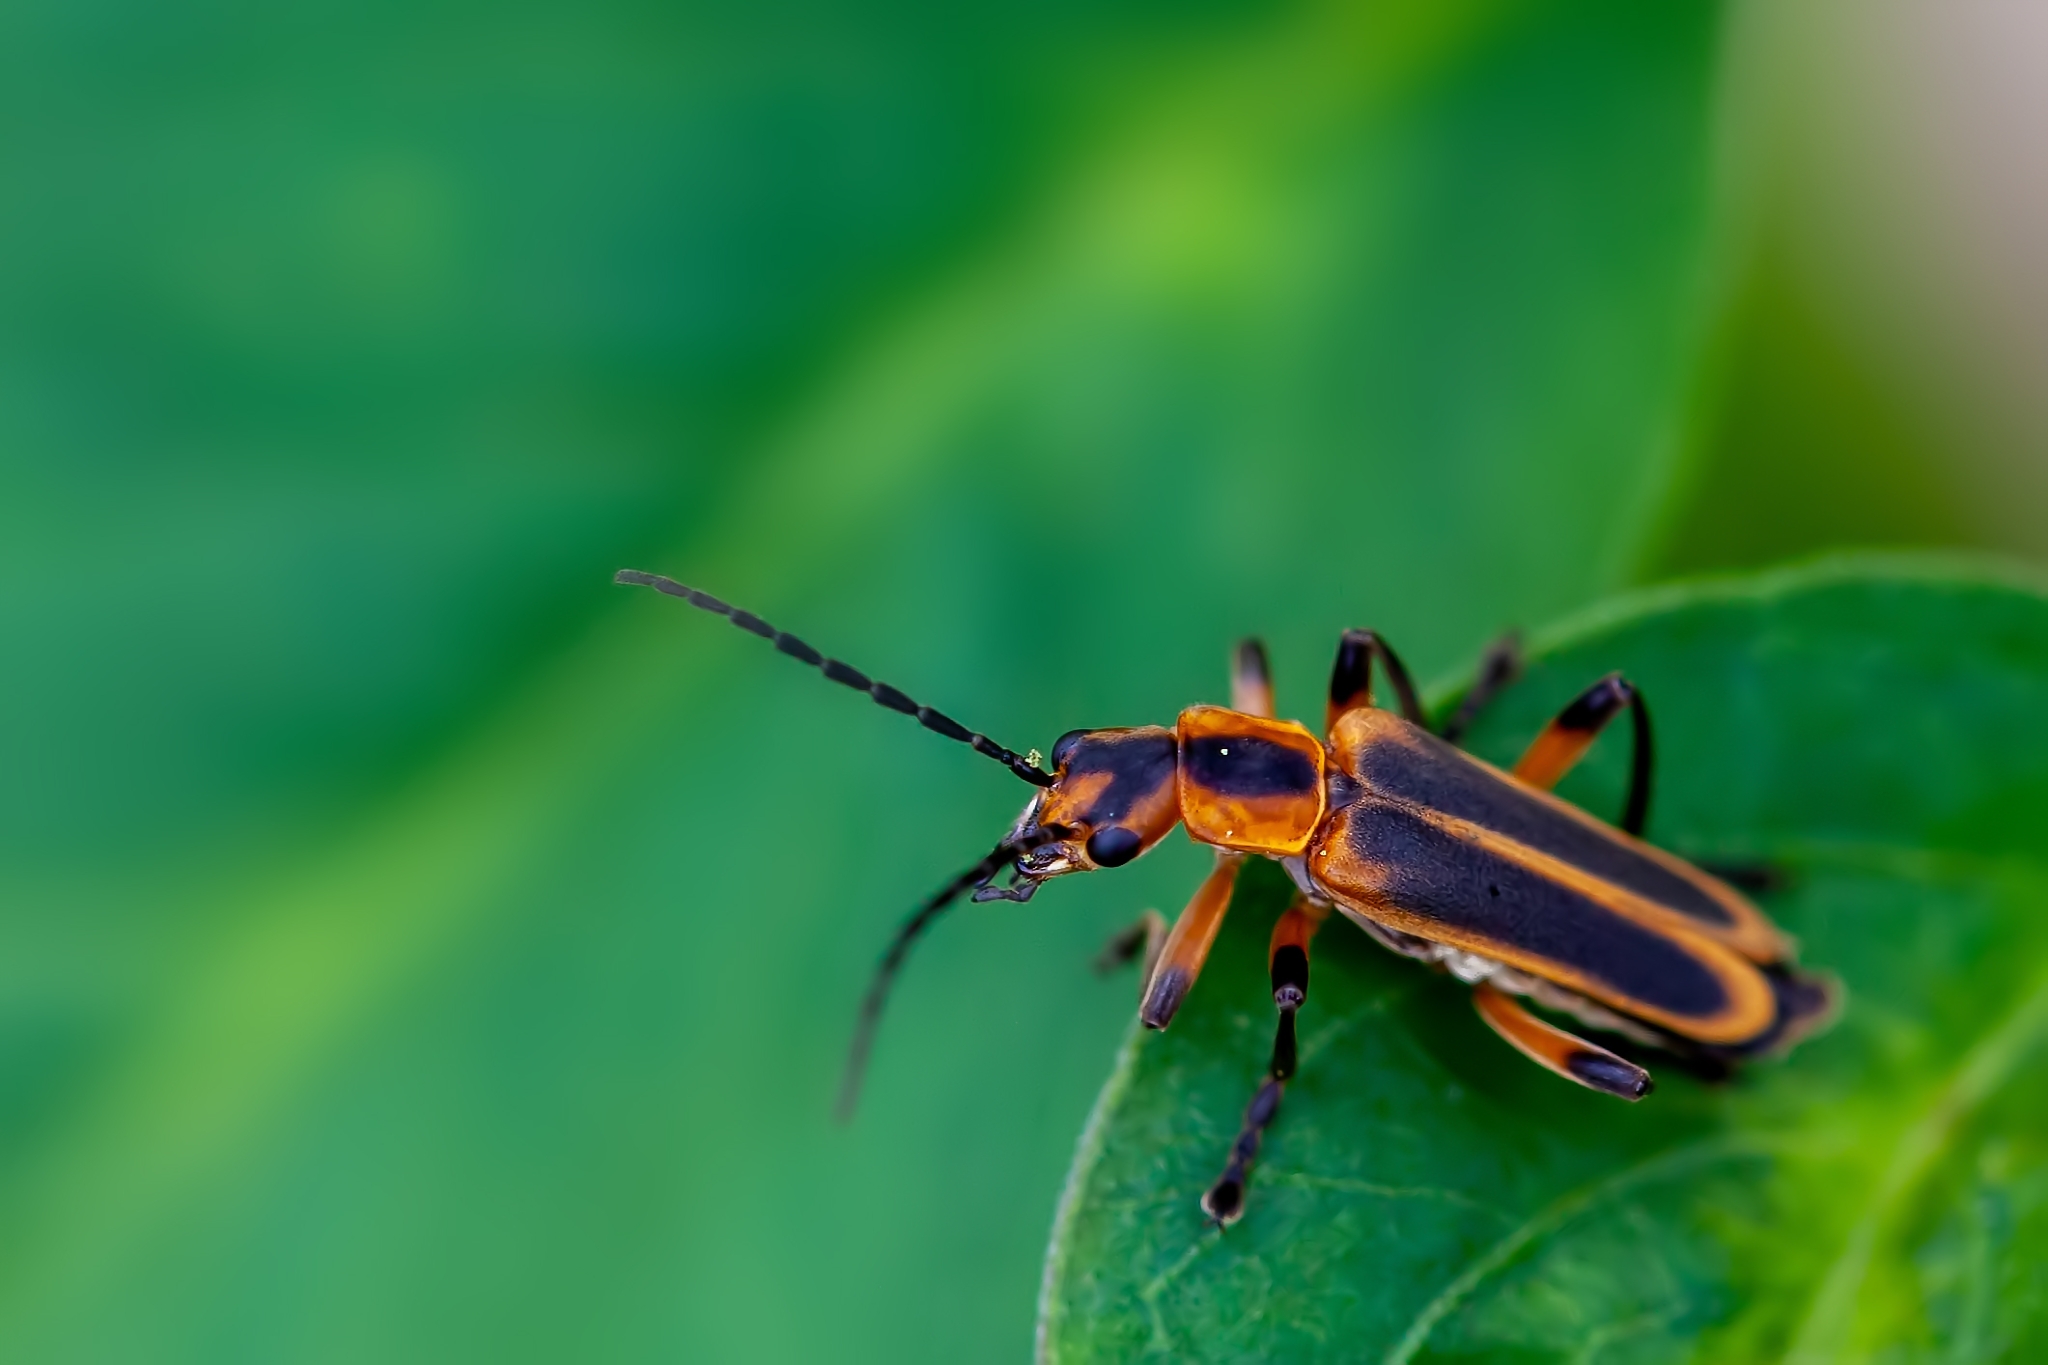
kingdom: Animalia
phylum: Arthropoda
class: Insecta
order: Coleoptera
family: Cantharidae
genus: Chauliognathus
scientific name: Chauliognathus marginatus
